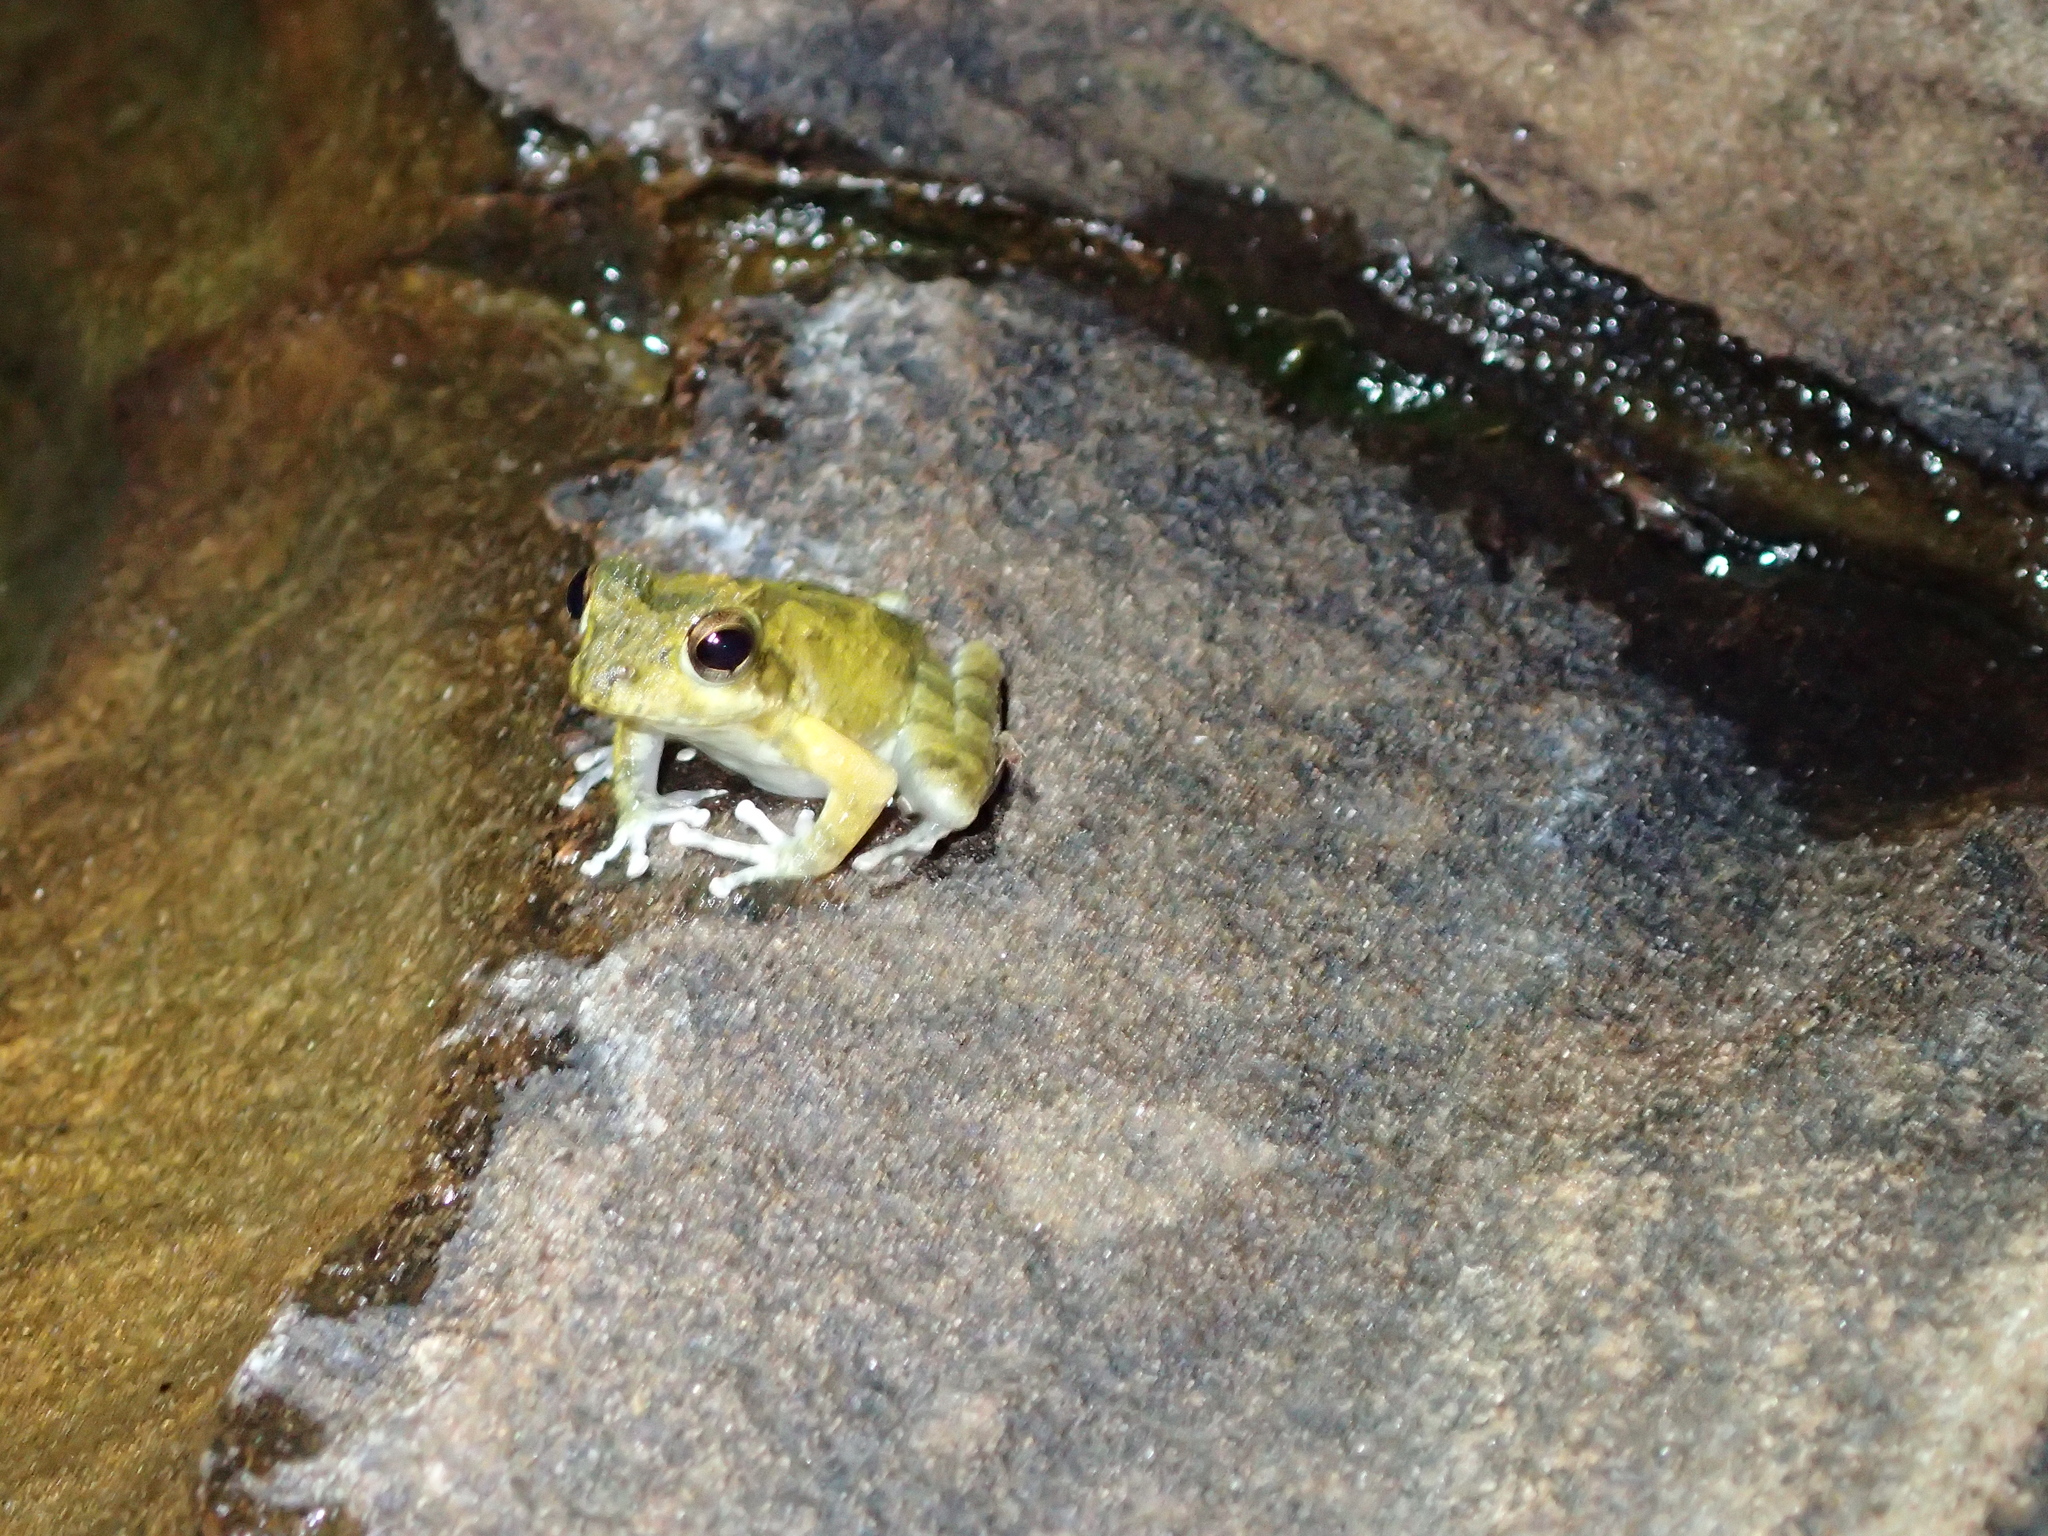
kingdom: Animalia
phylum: Chordata
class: Amphibia
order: Anura
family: Rhacophoridae
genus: Buergeria
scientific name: Buergeria choui
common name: Yaeyama kajika frog
